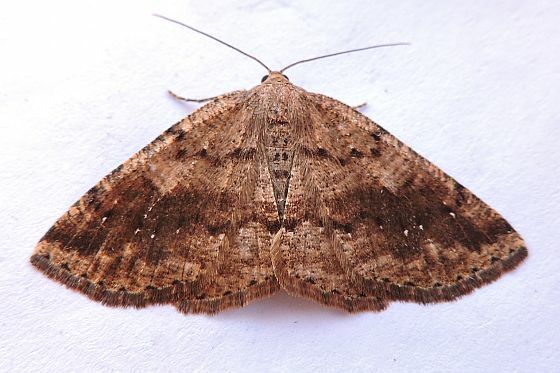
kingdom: Animalia
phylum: Arthropoda
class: Insecta
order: Lepidoptera
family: Geometridae
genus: Homochlodes
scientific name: Homochlodes fritillaria
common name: Pale homochlodes
